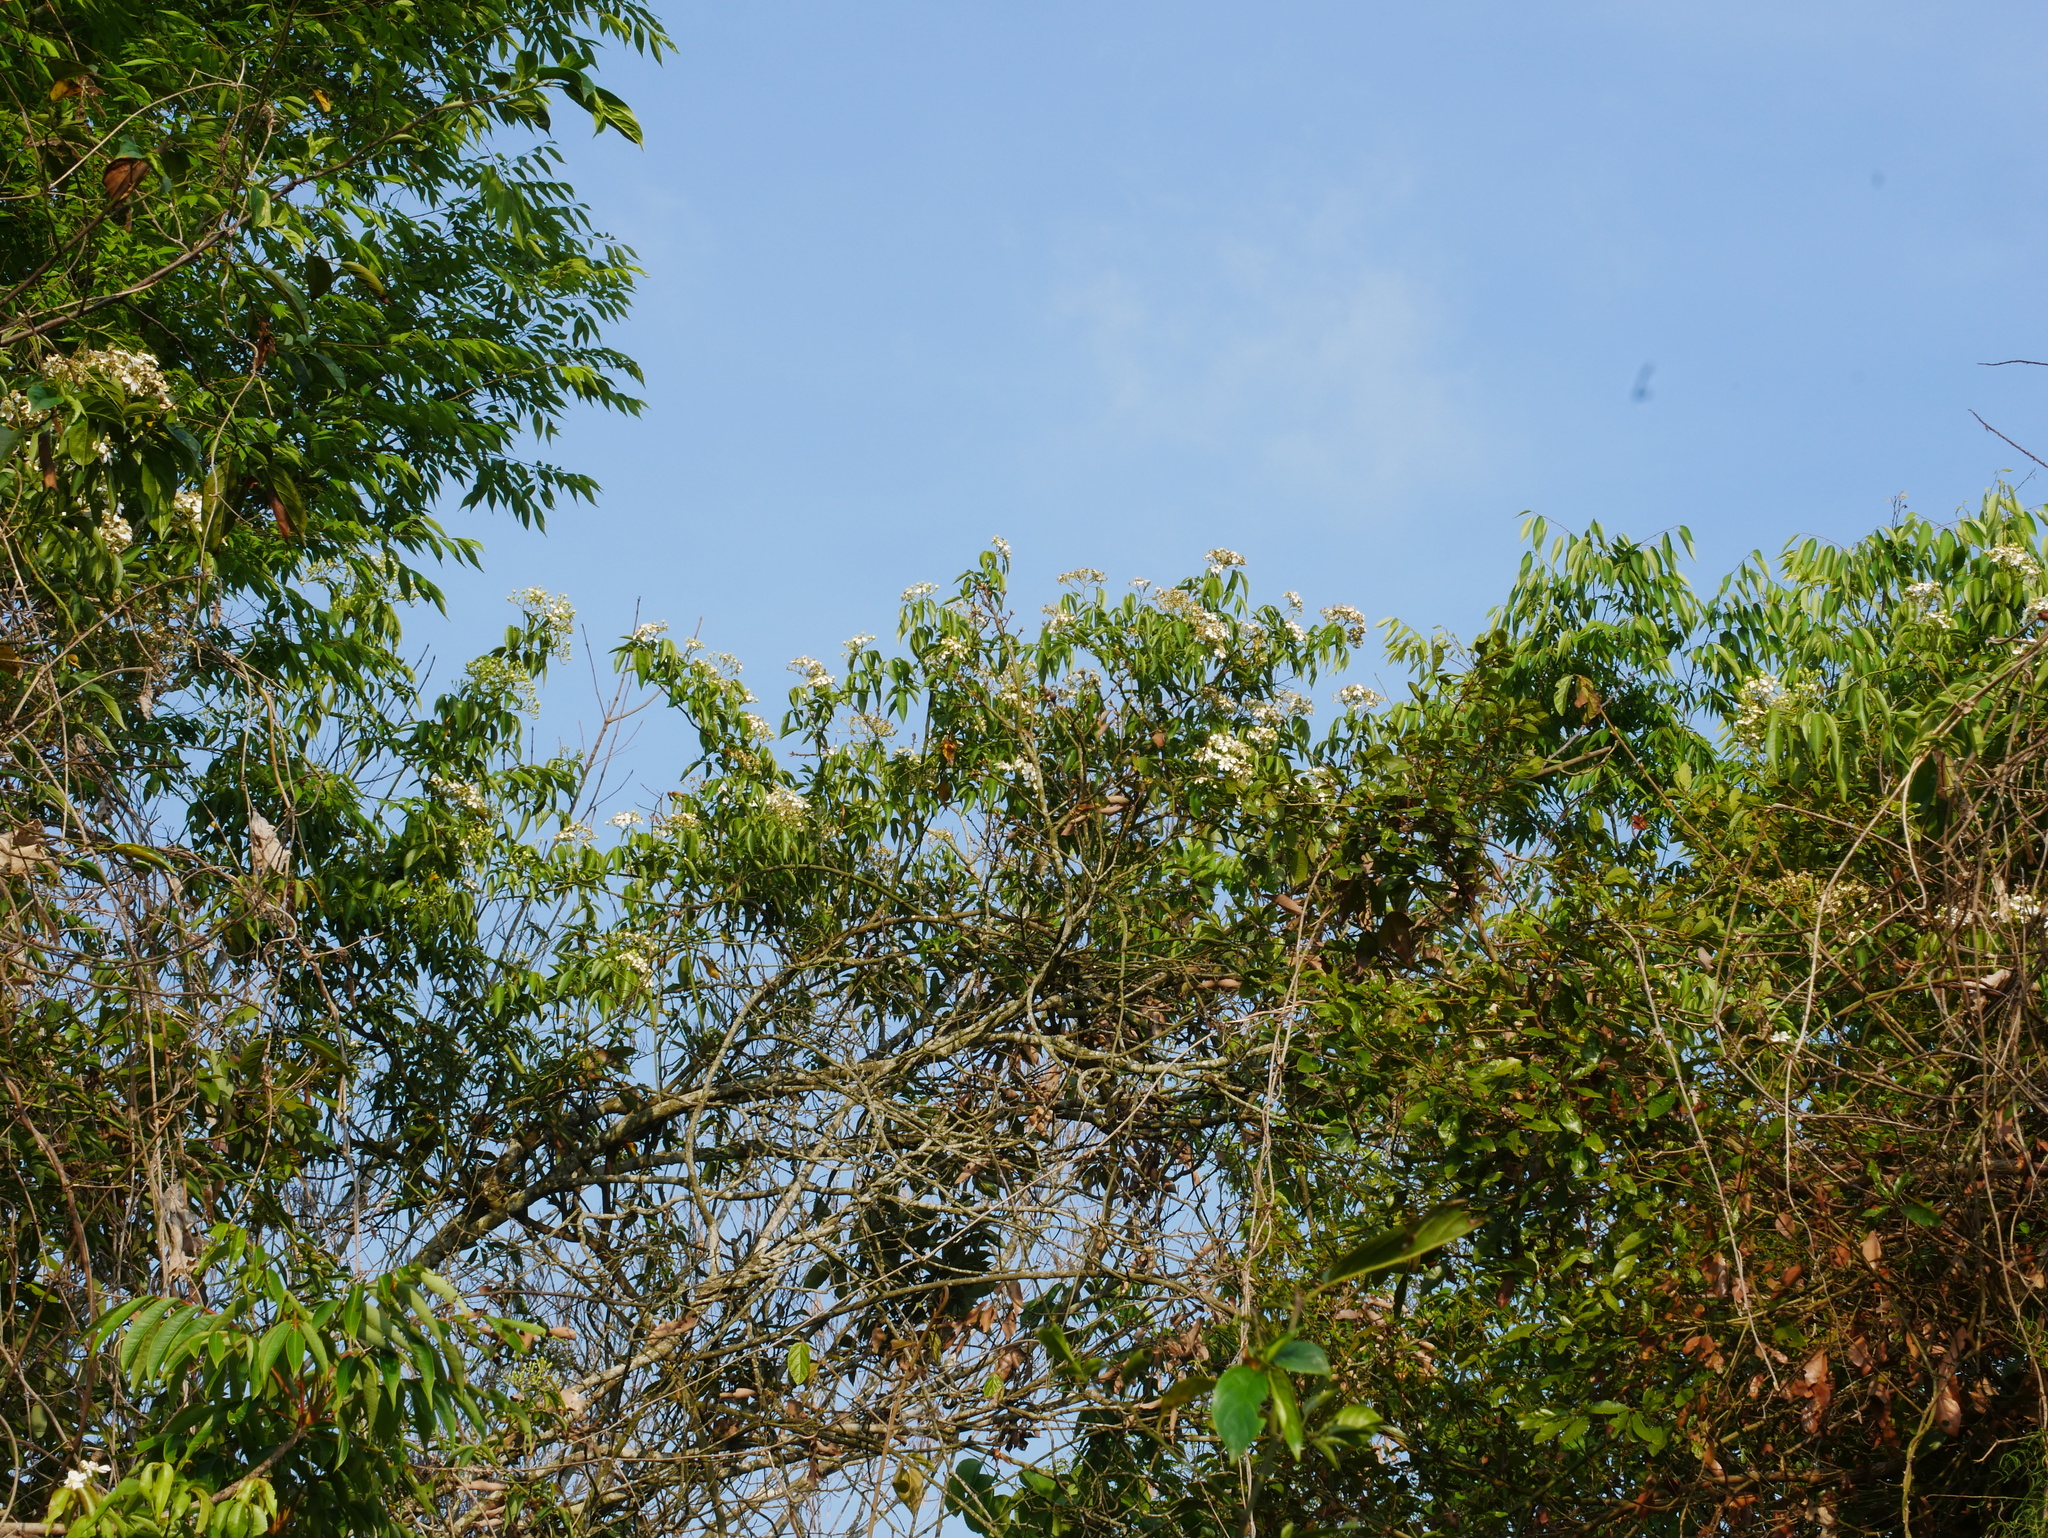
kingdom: Plantae
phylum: Tracheophyta
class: Magnoliopsida
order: Rosales
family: Rosaceae
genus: Rosa
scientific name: Rosa
